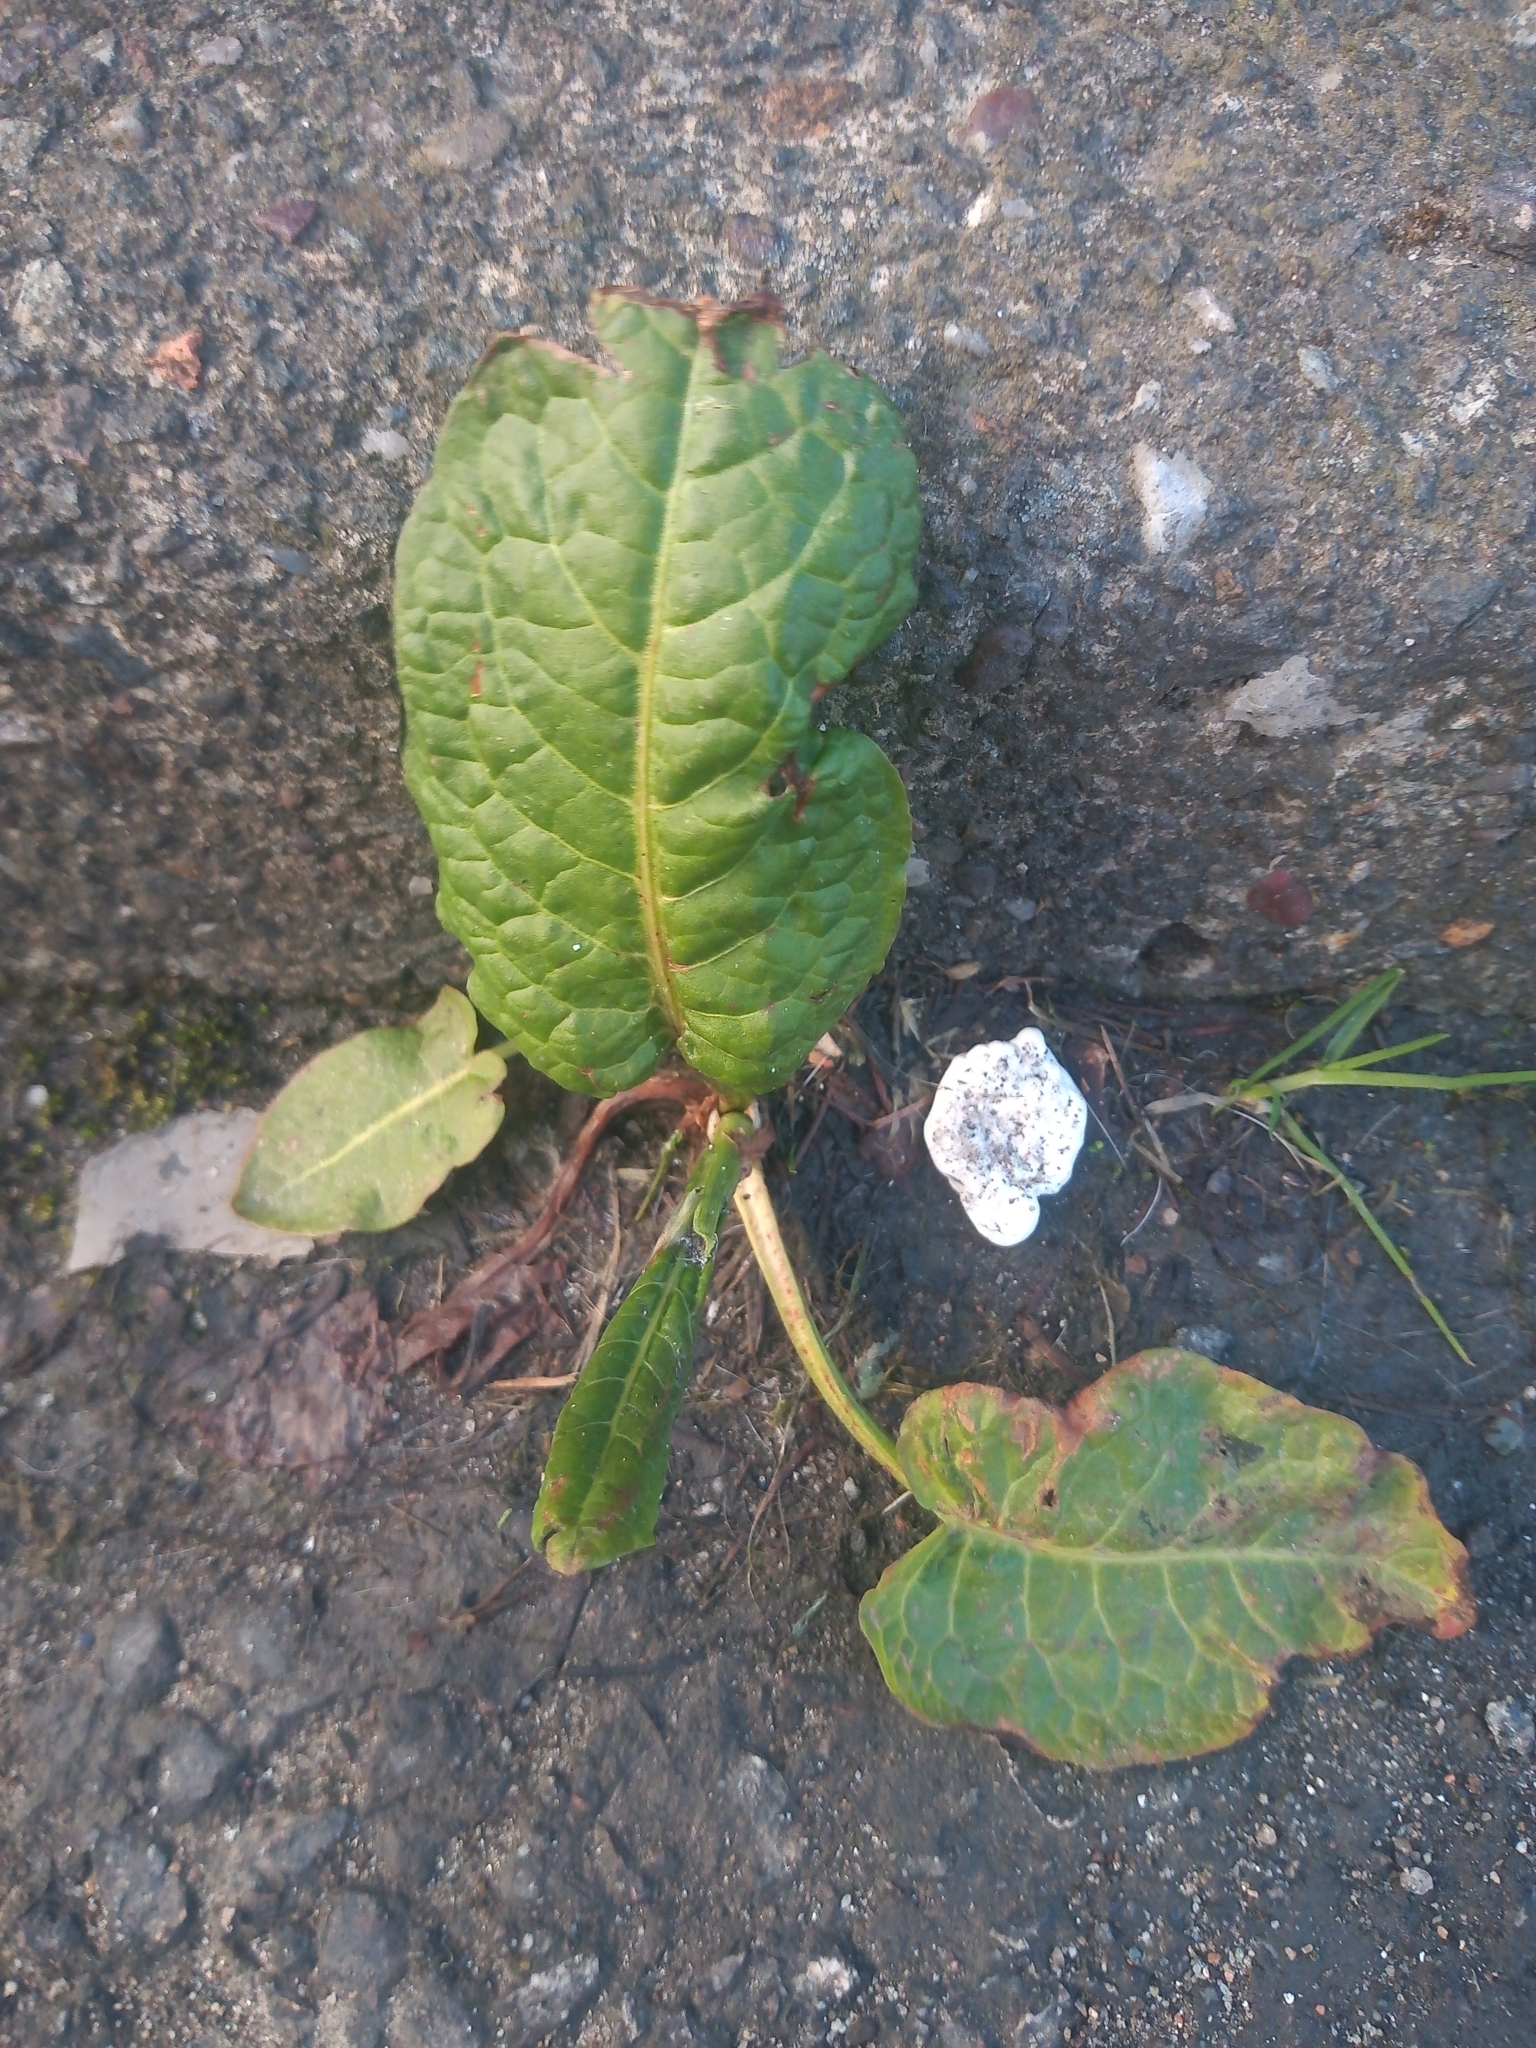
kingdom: Plantae
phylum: Tracheophyta
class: Magnoliopsida
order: Caryophyllales
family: Polygonaceae
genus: Rumex
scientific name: Rumex obtusifolius
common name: Bitter dock
